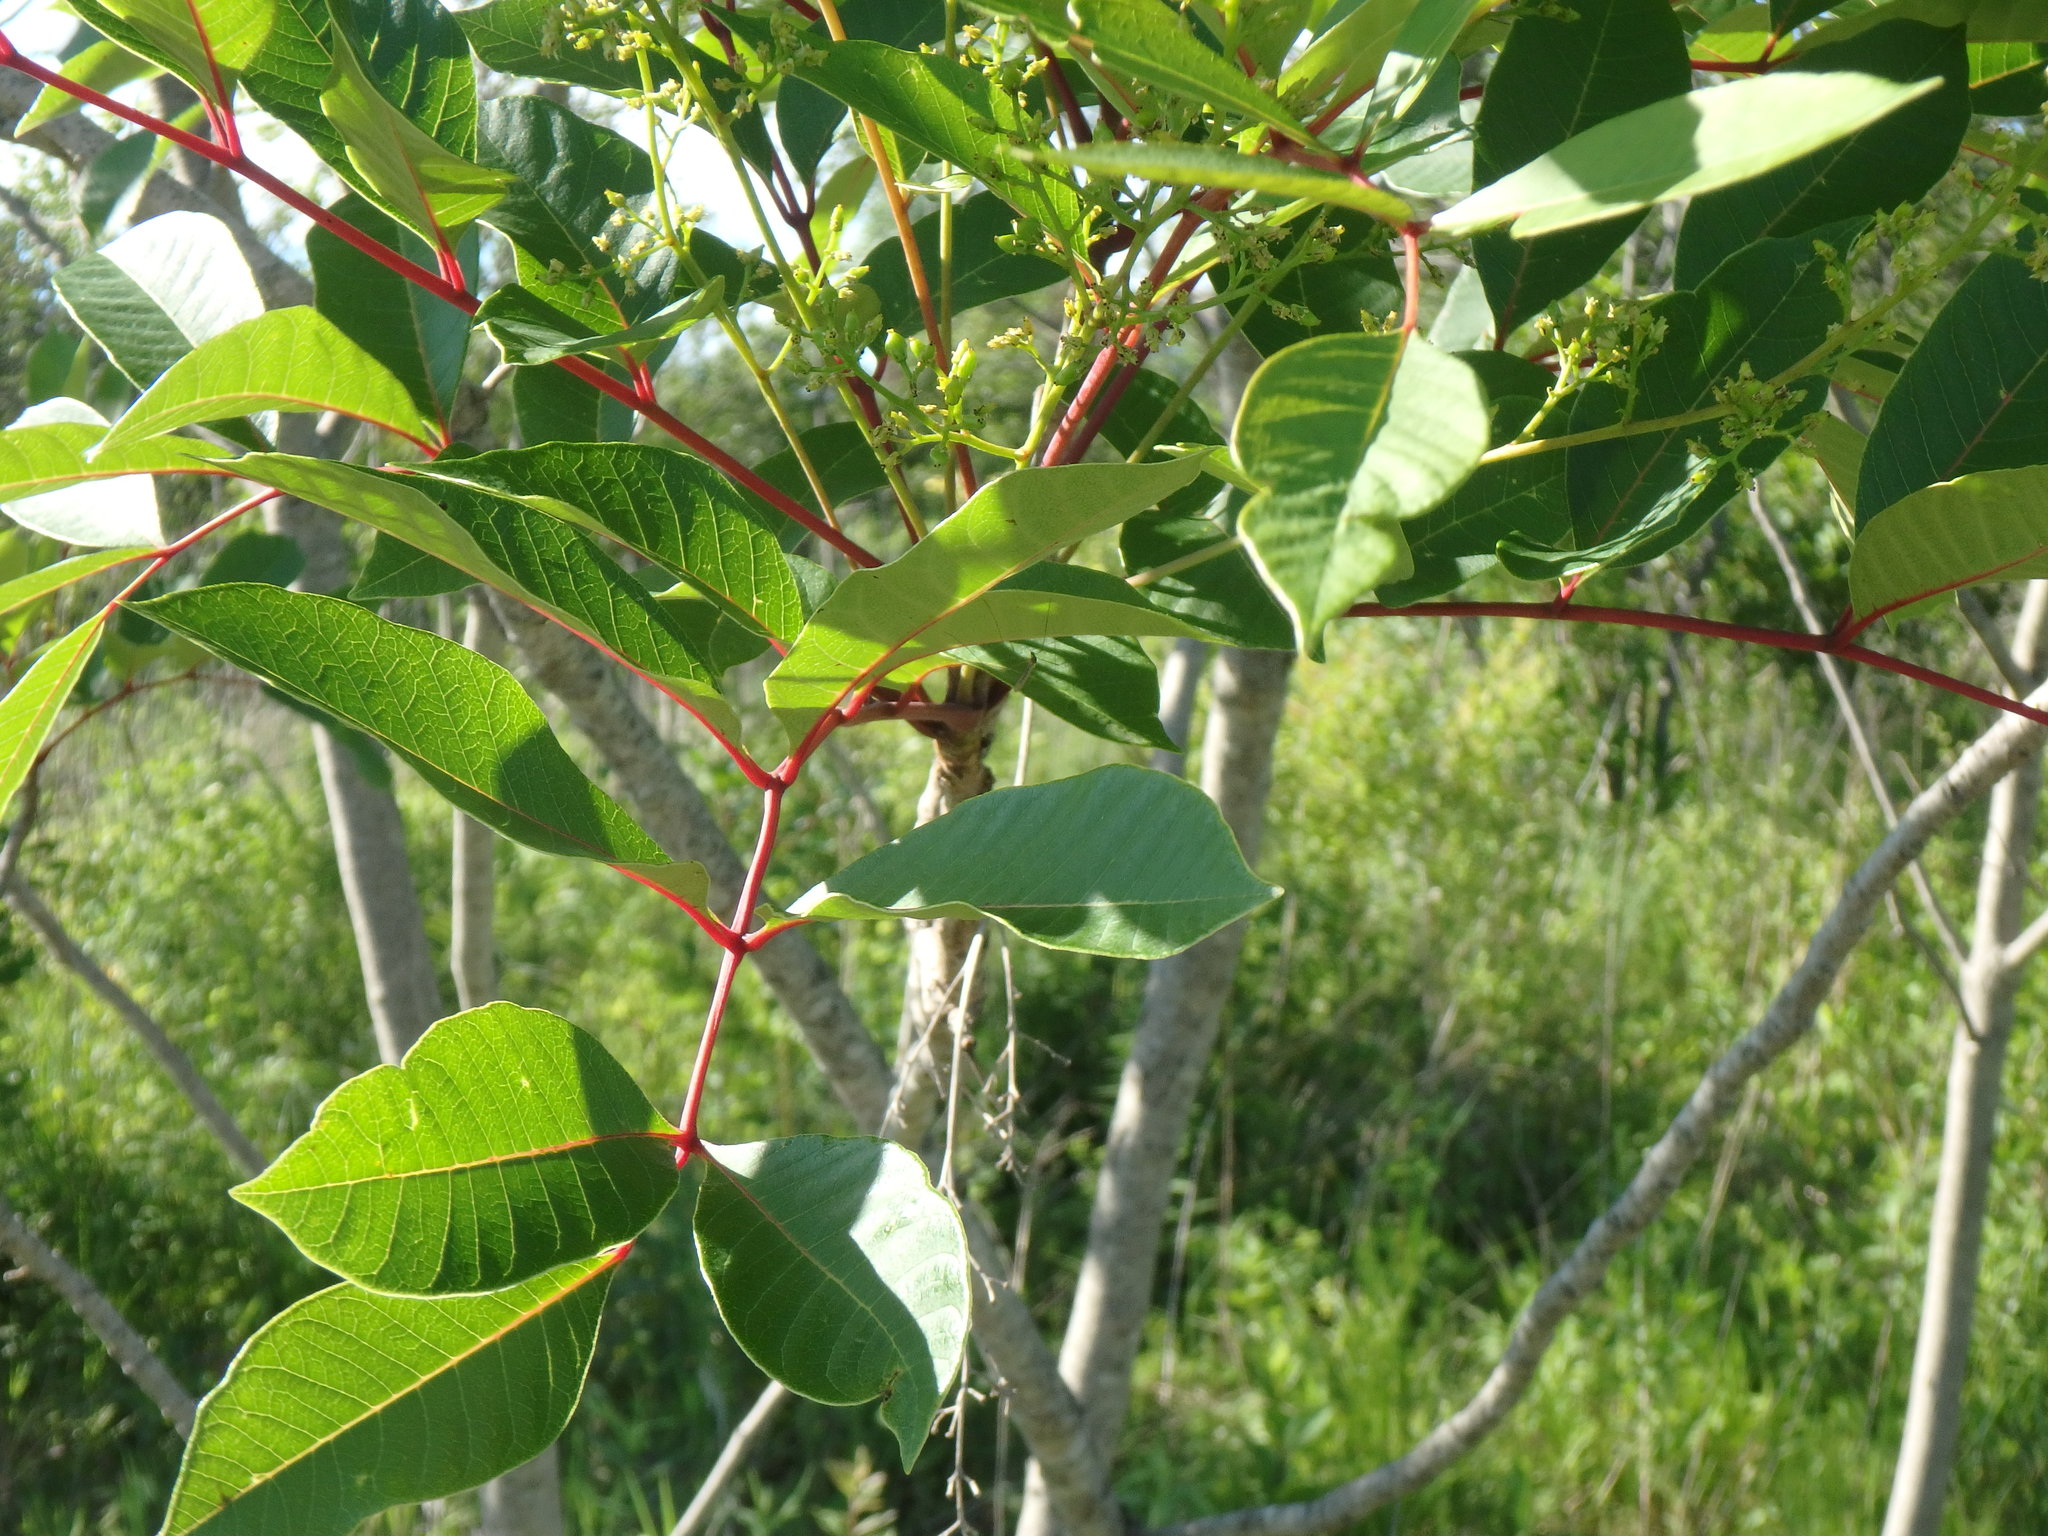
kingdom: Plantae
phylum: Tracheophyta
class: Magnoliopsida
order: Sapindales
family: Anacardiaceae
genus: Toxicodendron
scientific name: Toxicodendron vernix
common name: Poison sumac
